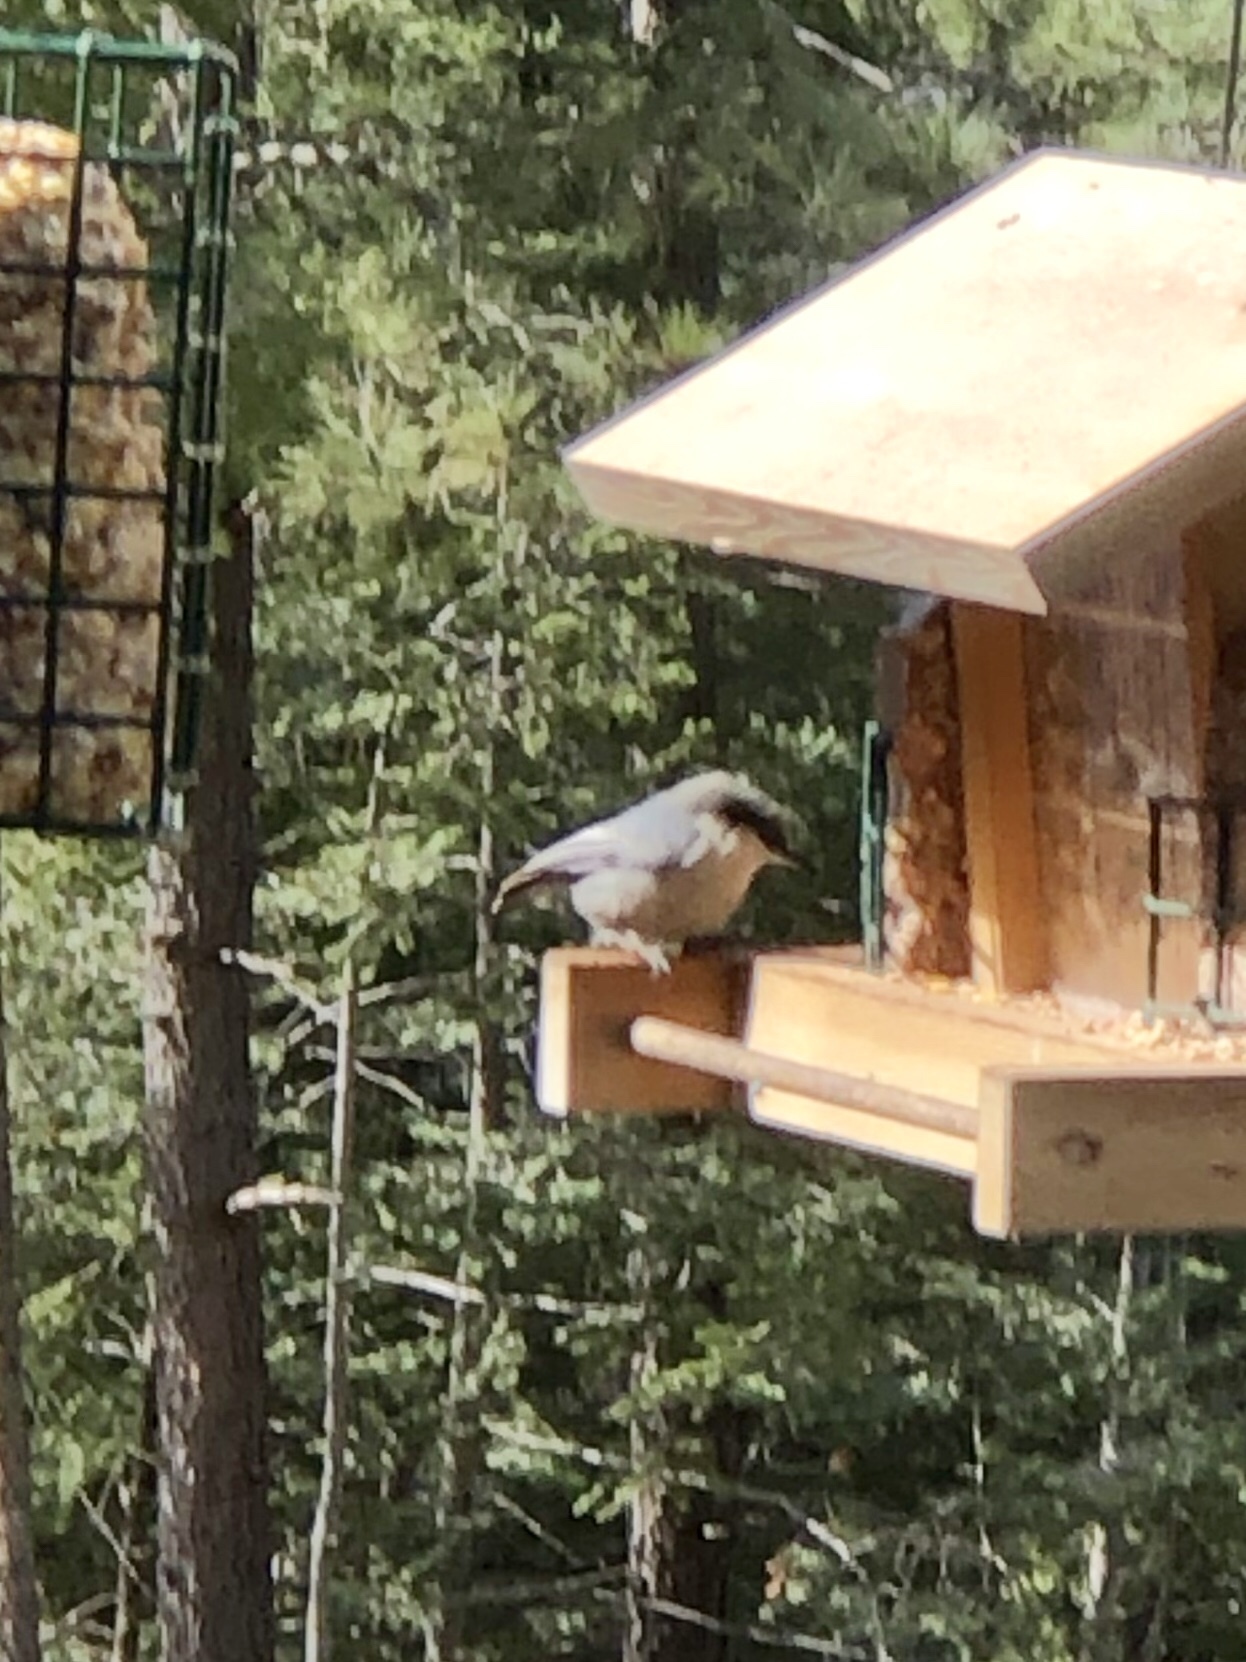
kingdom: Animalia
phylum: Chordata
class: Aves
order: Passeriformes
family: Sittidae
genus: Sitta
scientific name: Sitta pygmaea
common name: Pygmy nuthatch
